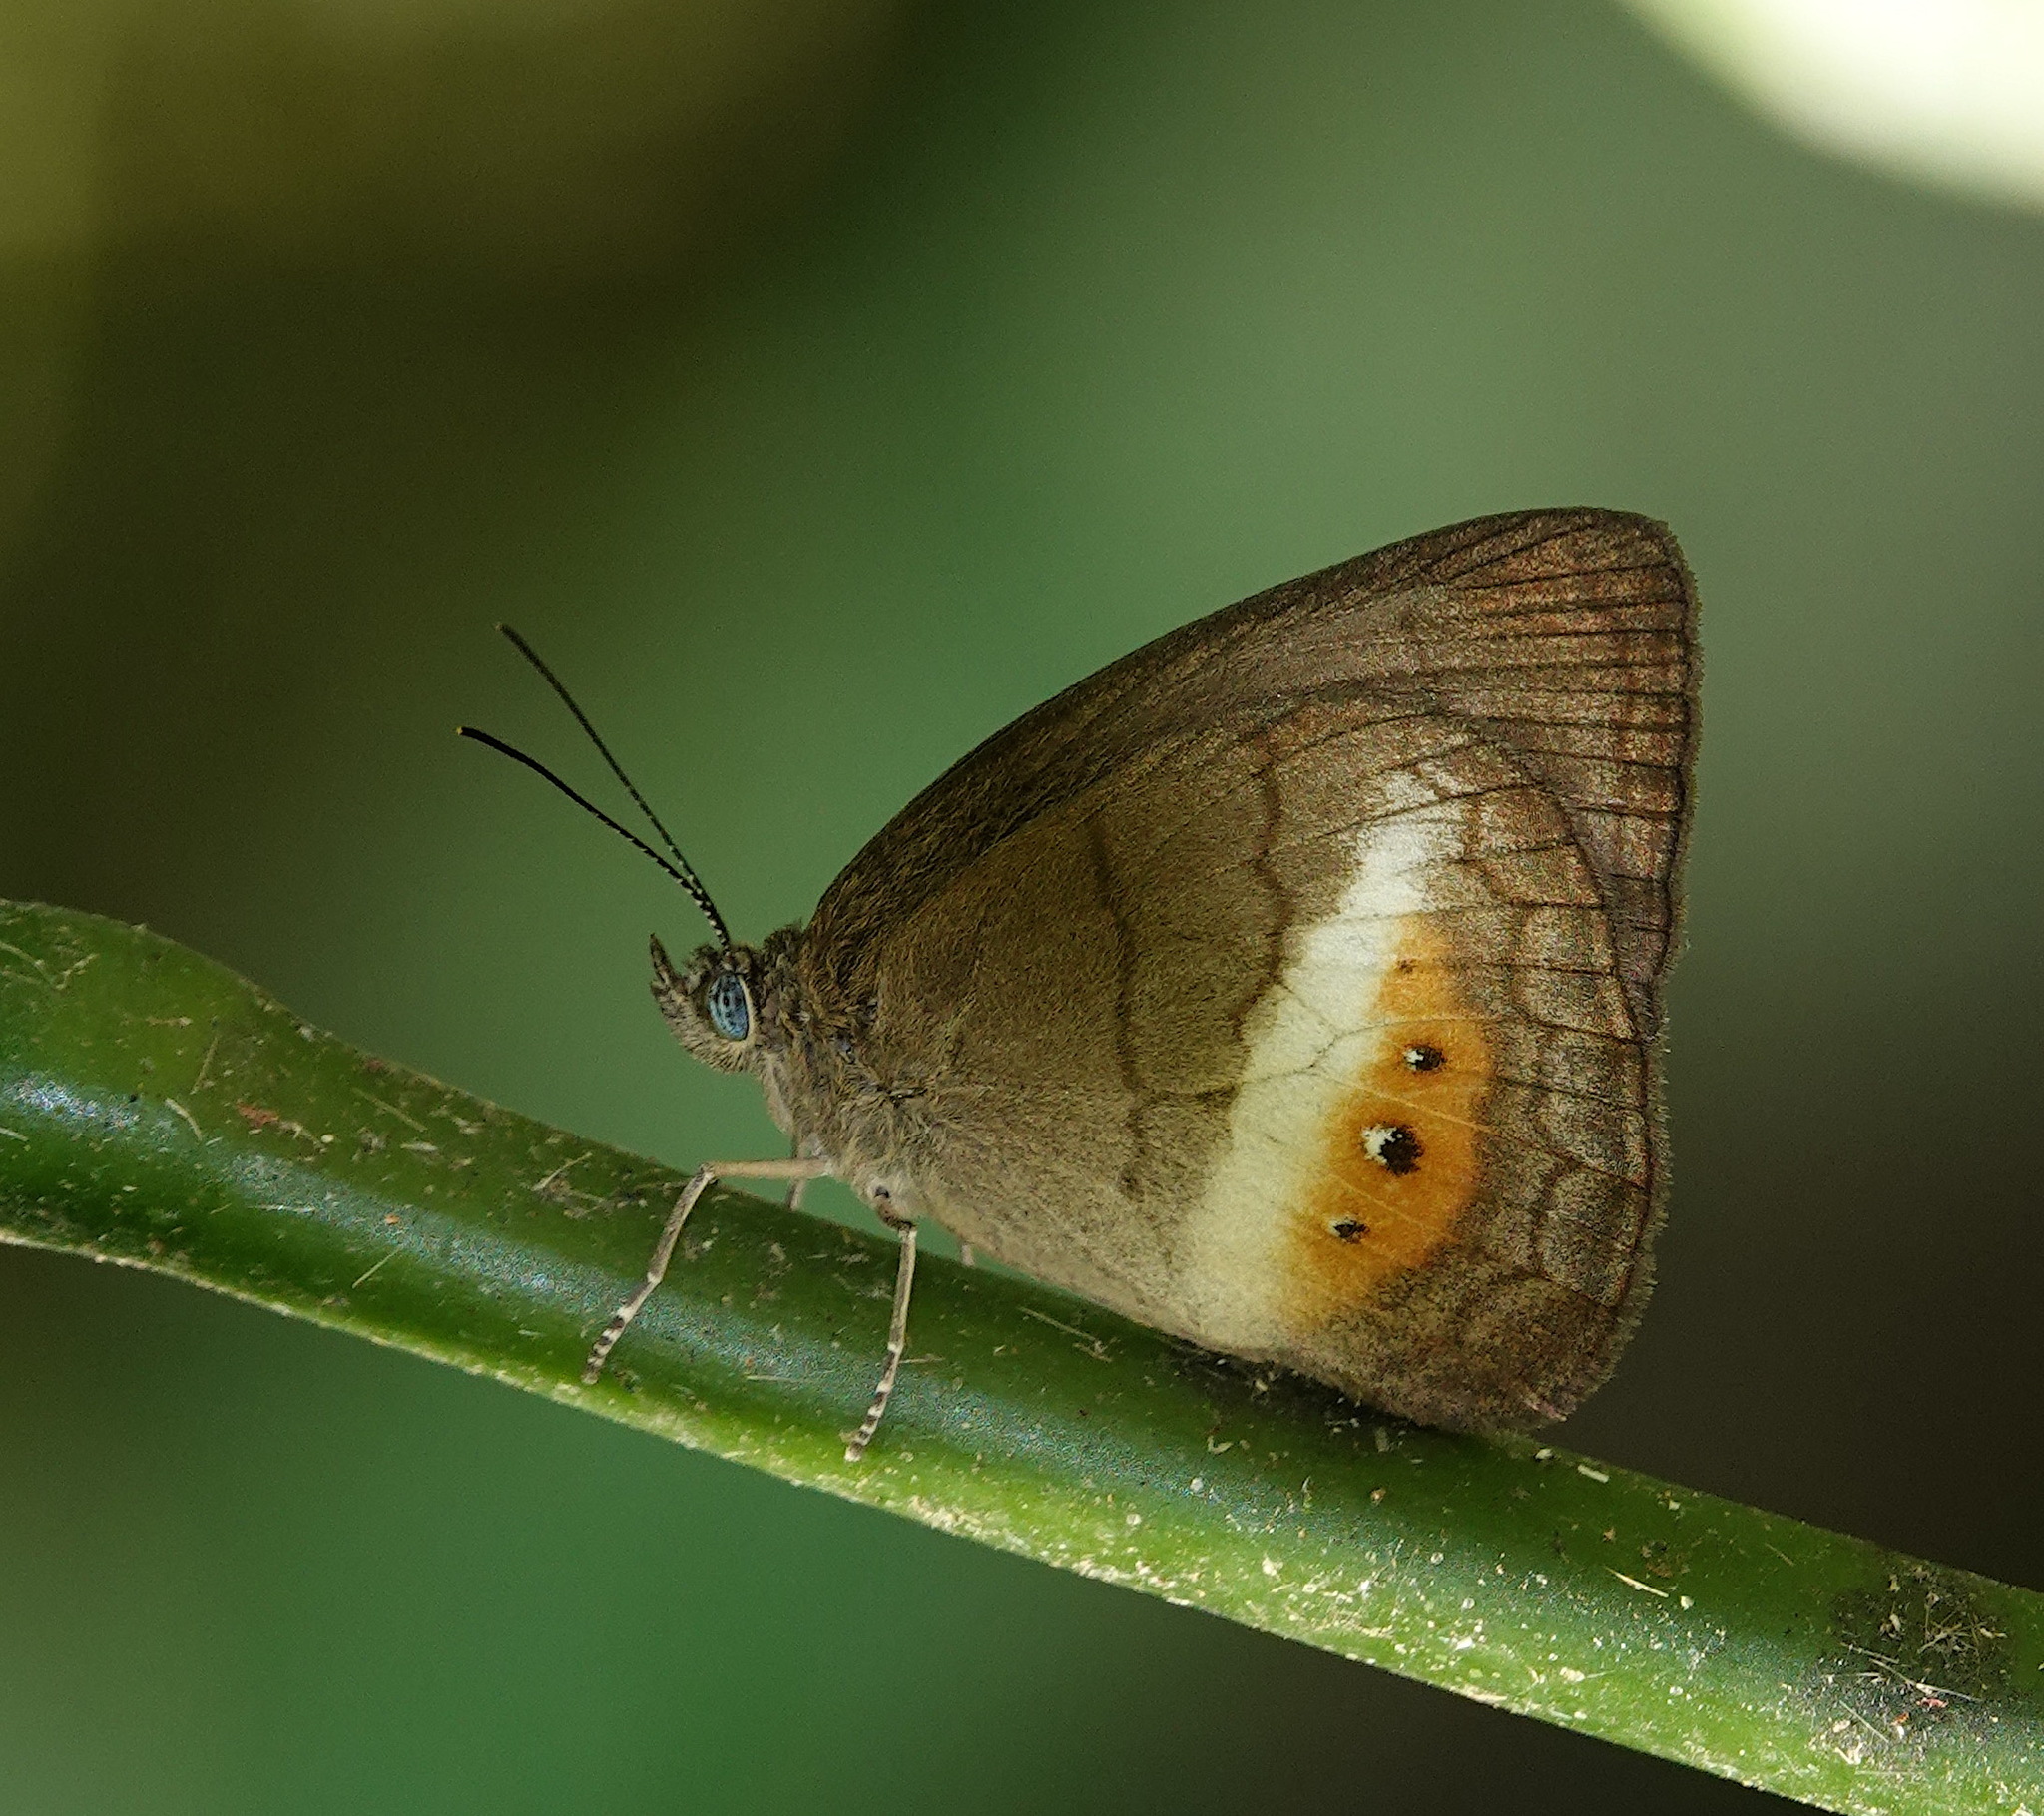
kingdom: Animalia
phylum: Arthropoda
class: Insecta
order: Lepidoptera
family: Nymphalidae
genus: Zischkaia
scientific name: Zischkaia
